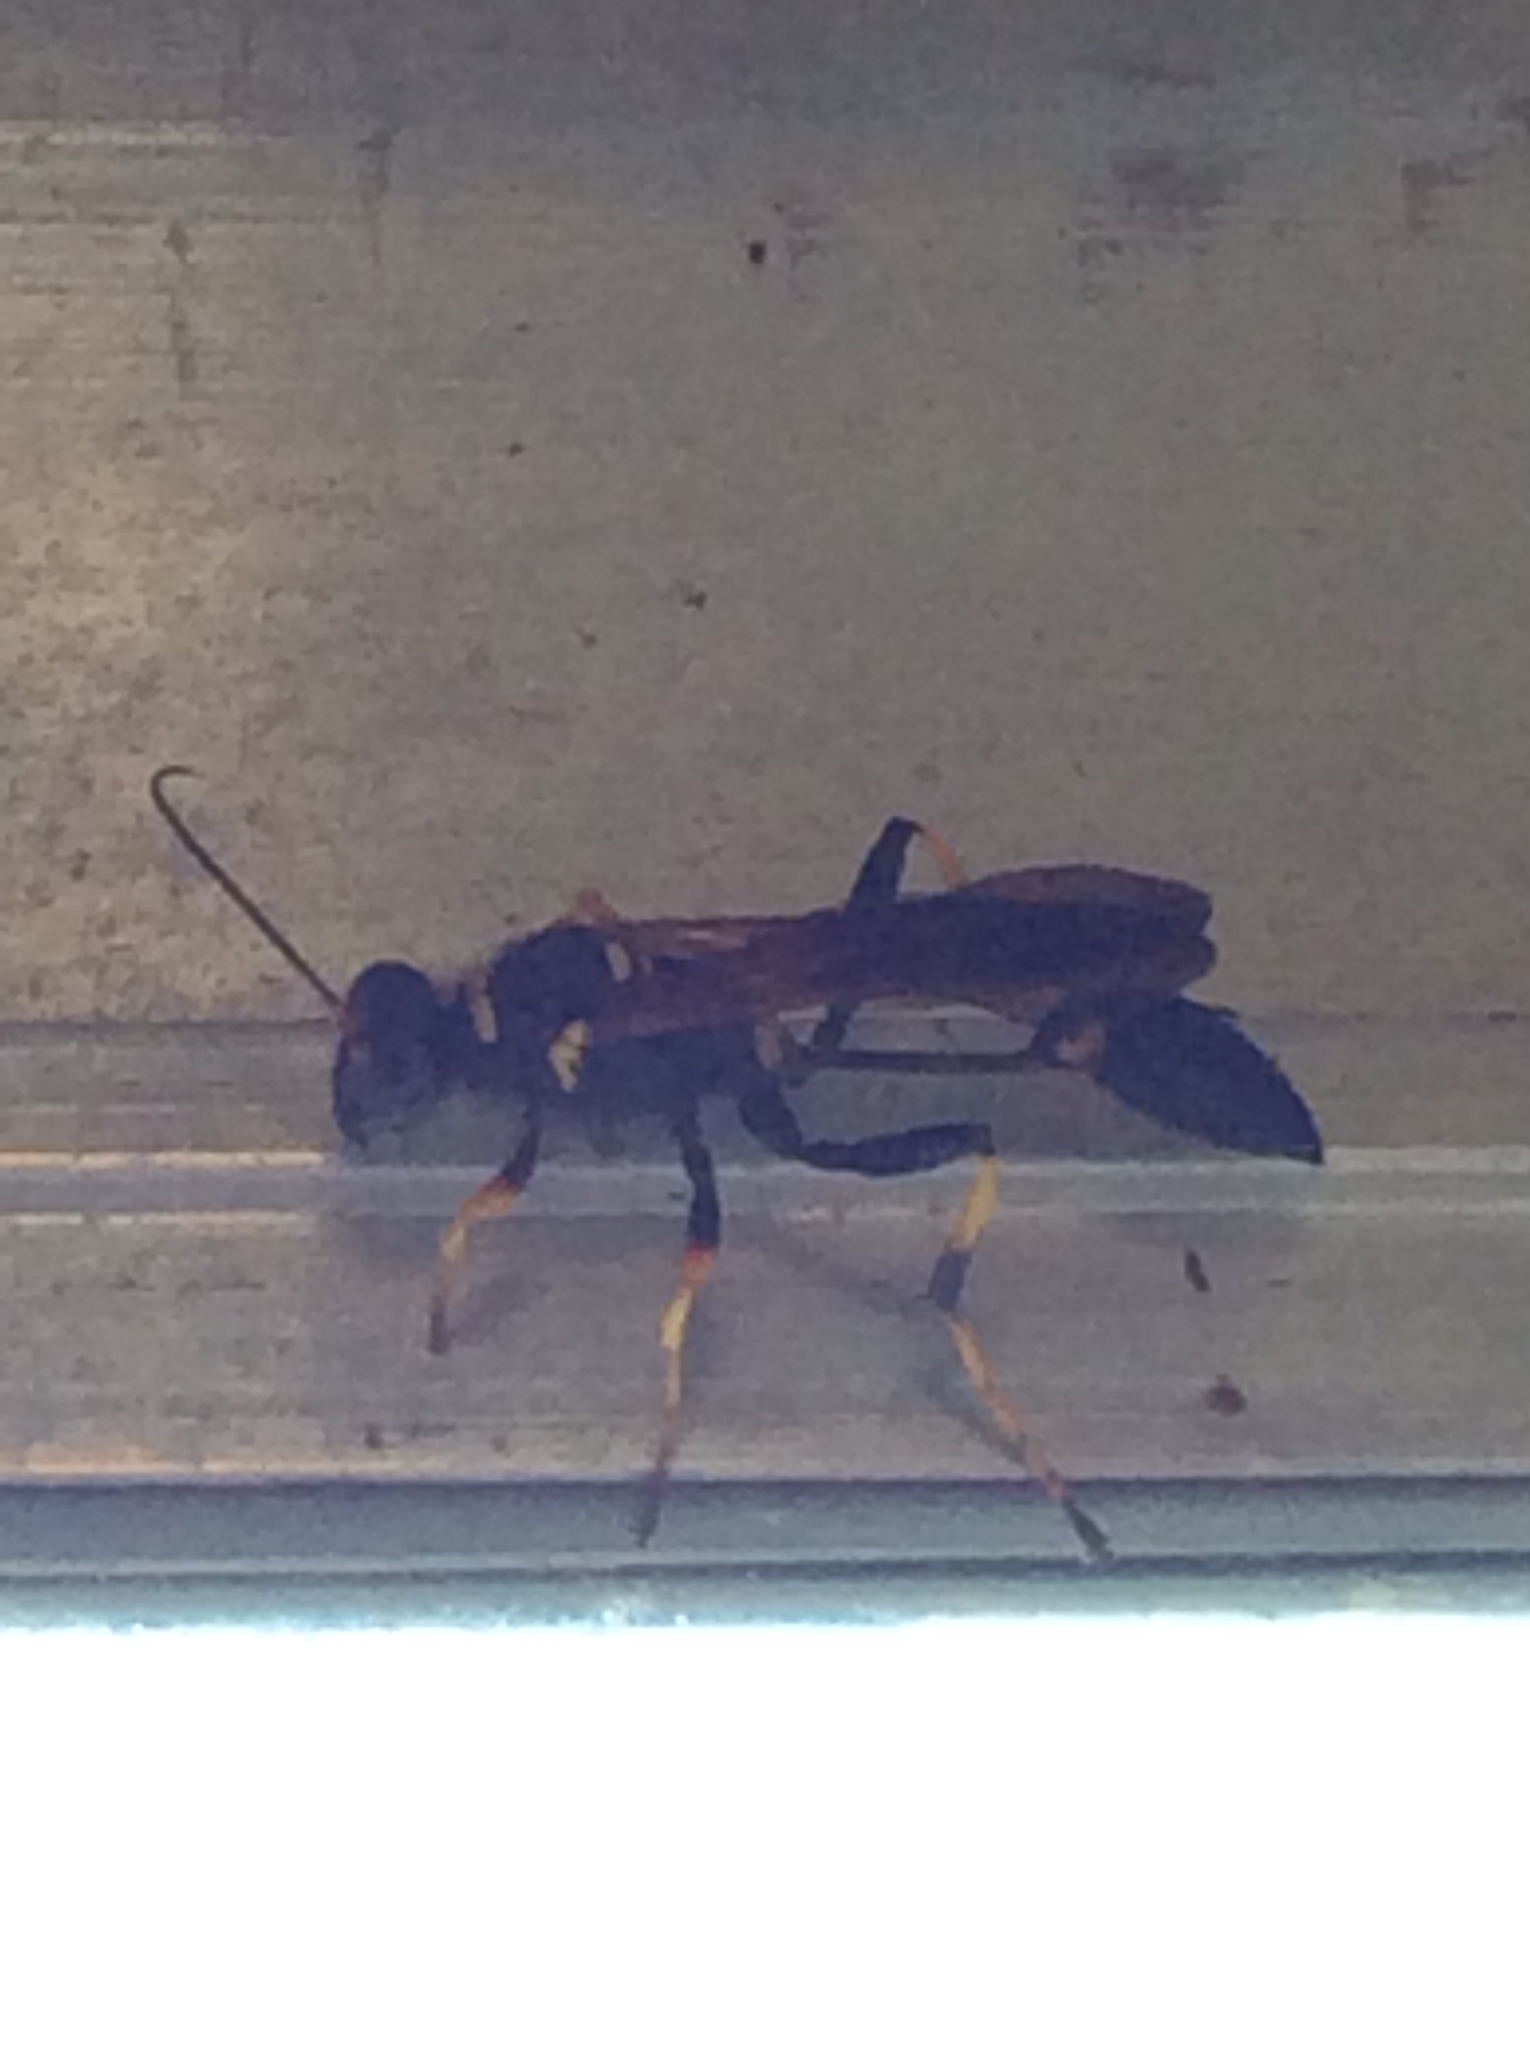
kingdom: Animalia
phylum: Arthropoda
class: Insecta
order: Hymenoptera
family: Sphecidae
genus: Sceliphron
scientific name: Sceliphron caementarium
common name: Mud dauber
